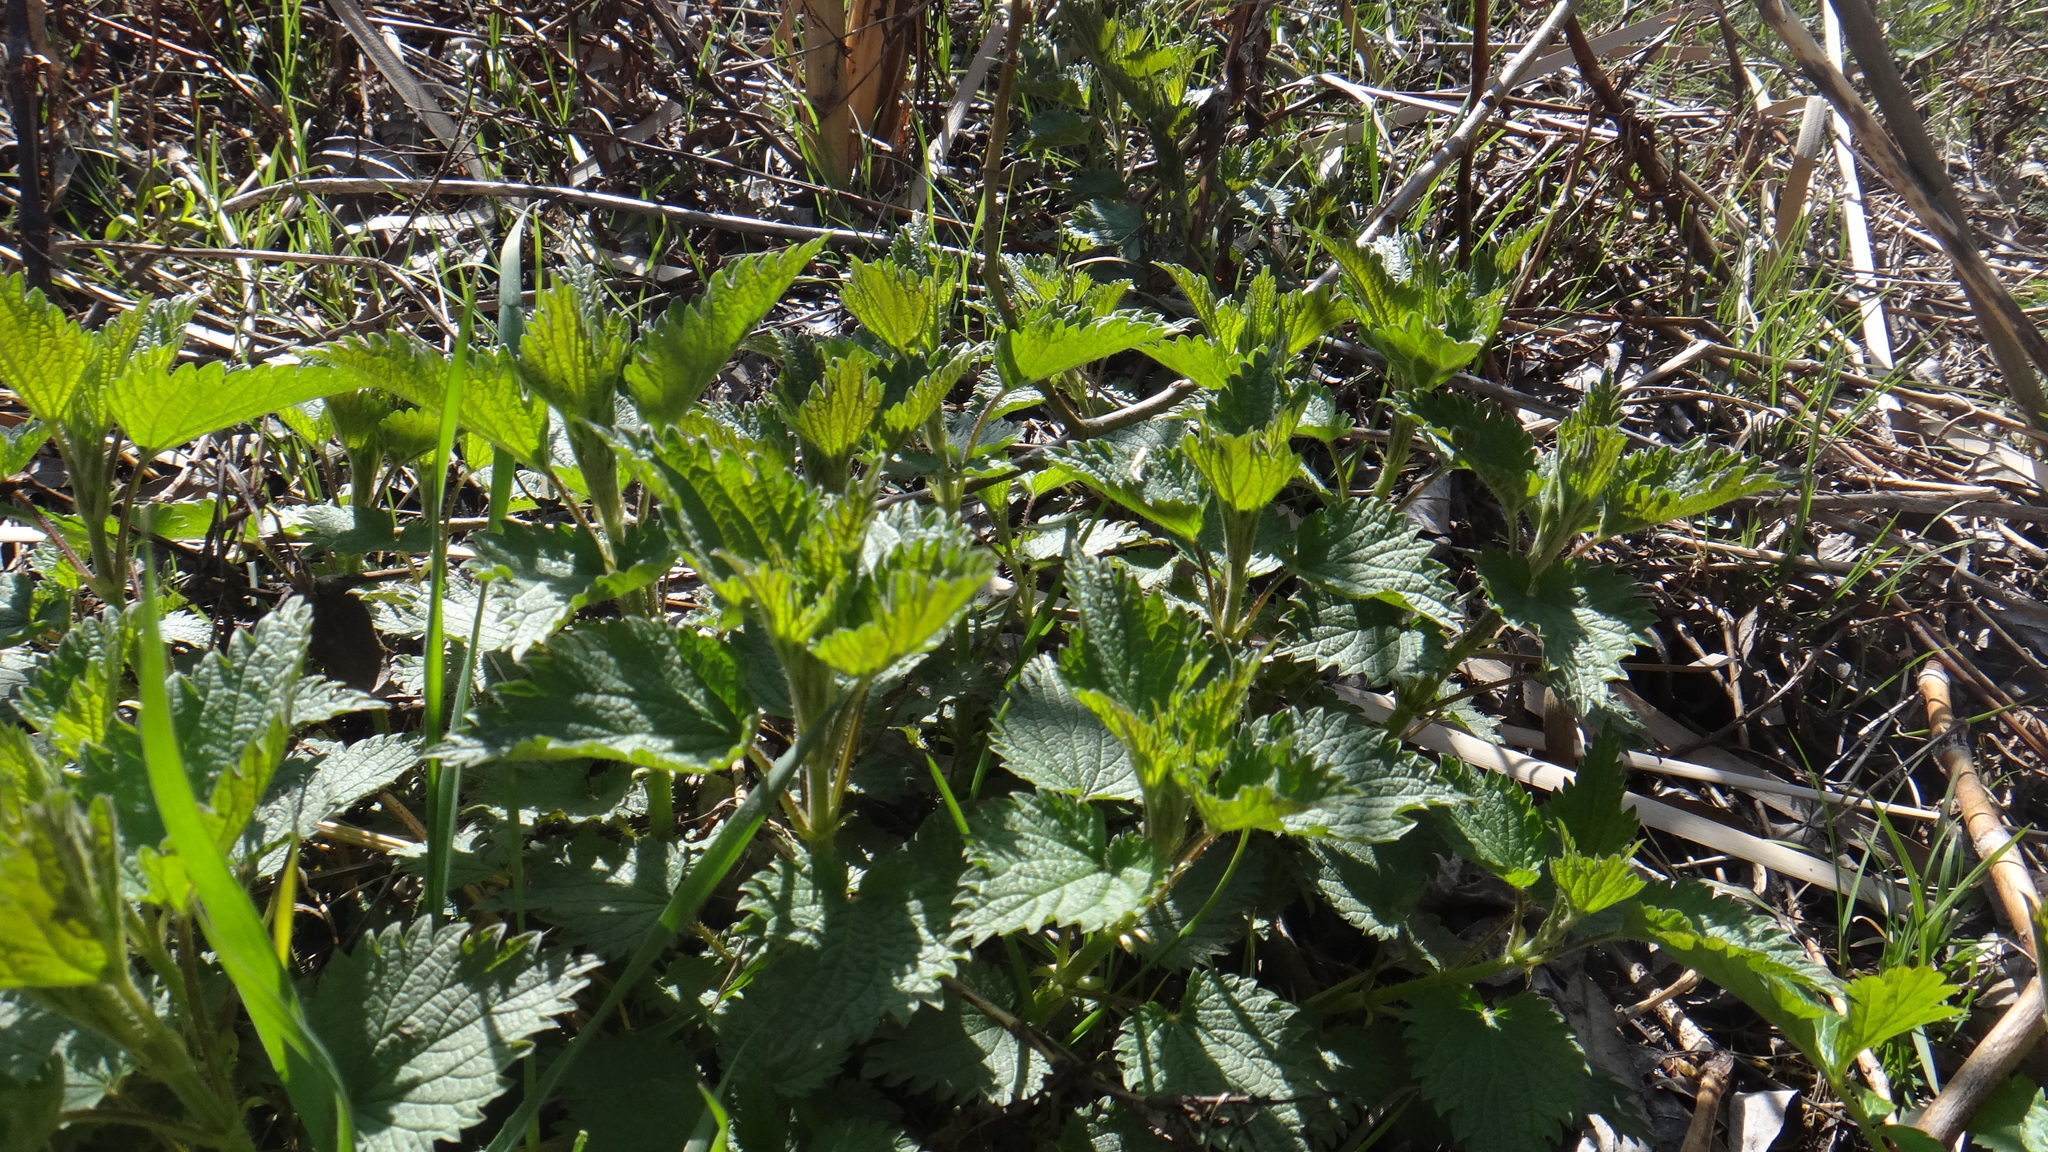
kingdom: Plantae
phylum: Tracheophyta
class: Magnoliopsida
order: Rosales
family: Urticaceae
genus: Urtica
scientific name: Urtica dioica
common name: Common nettle
